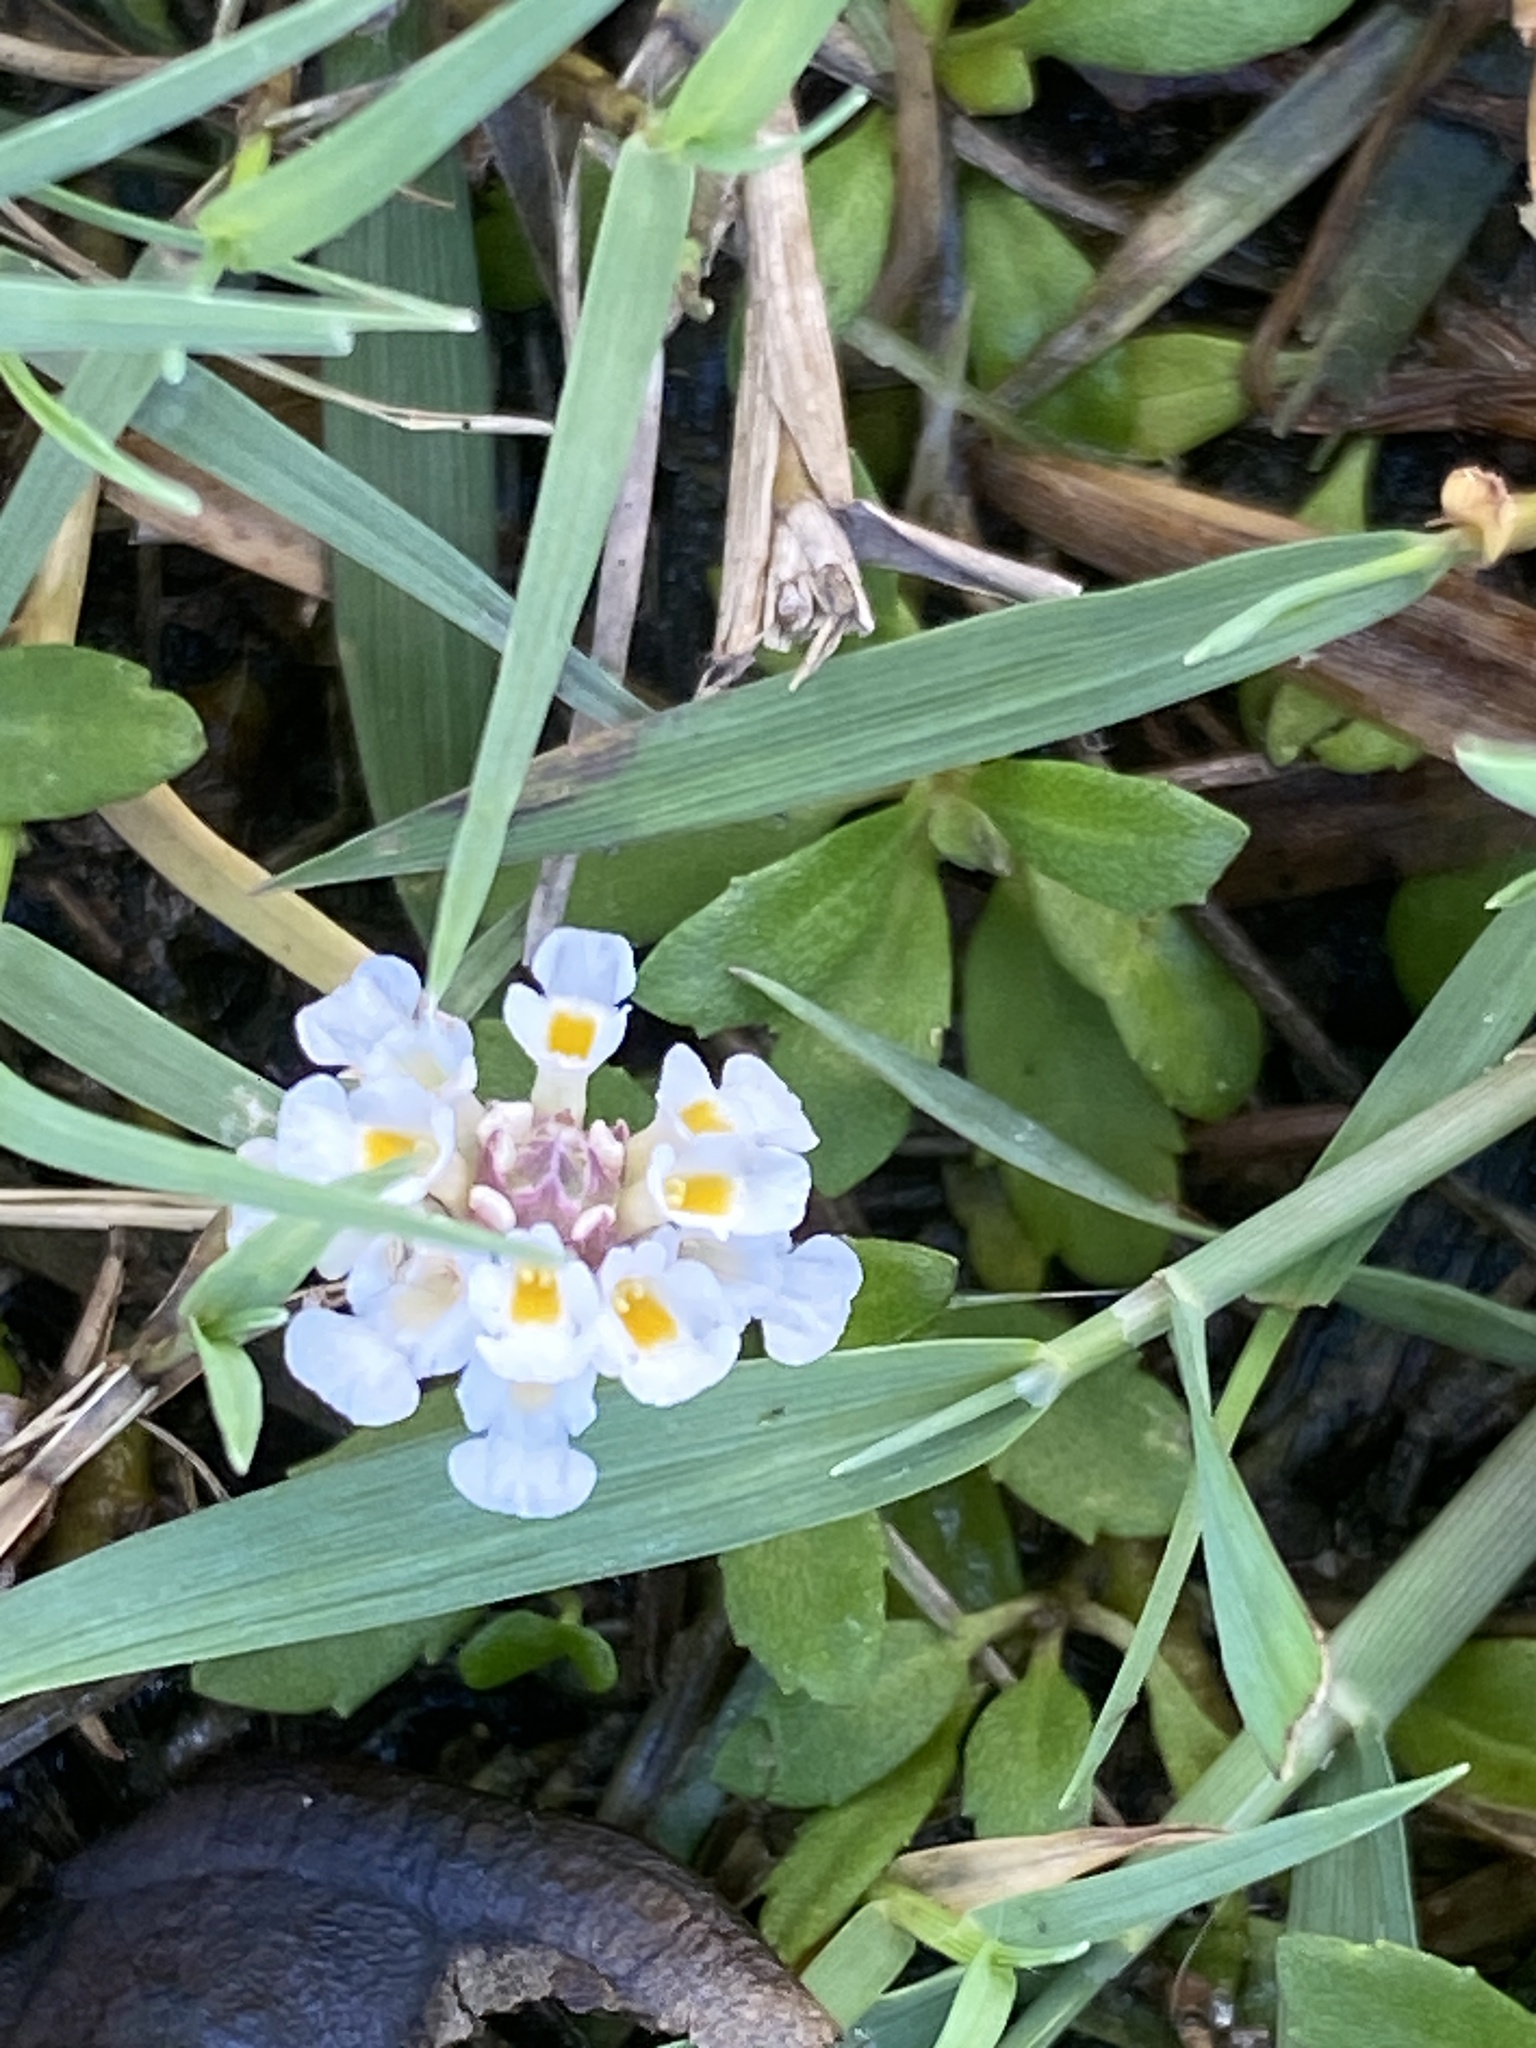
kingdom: Plantae
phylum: Tracheophyta
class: Magnoliopsida
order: Lamiales
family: Verbenaceae
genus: Phyla
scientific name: Phyla nodiflora
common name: Frogfruit
